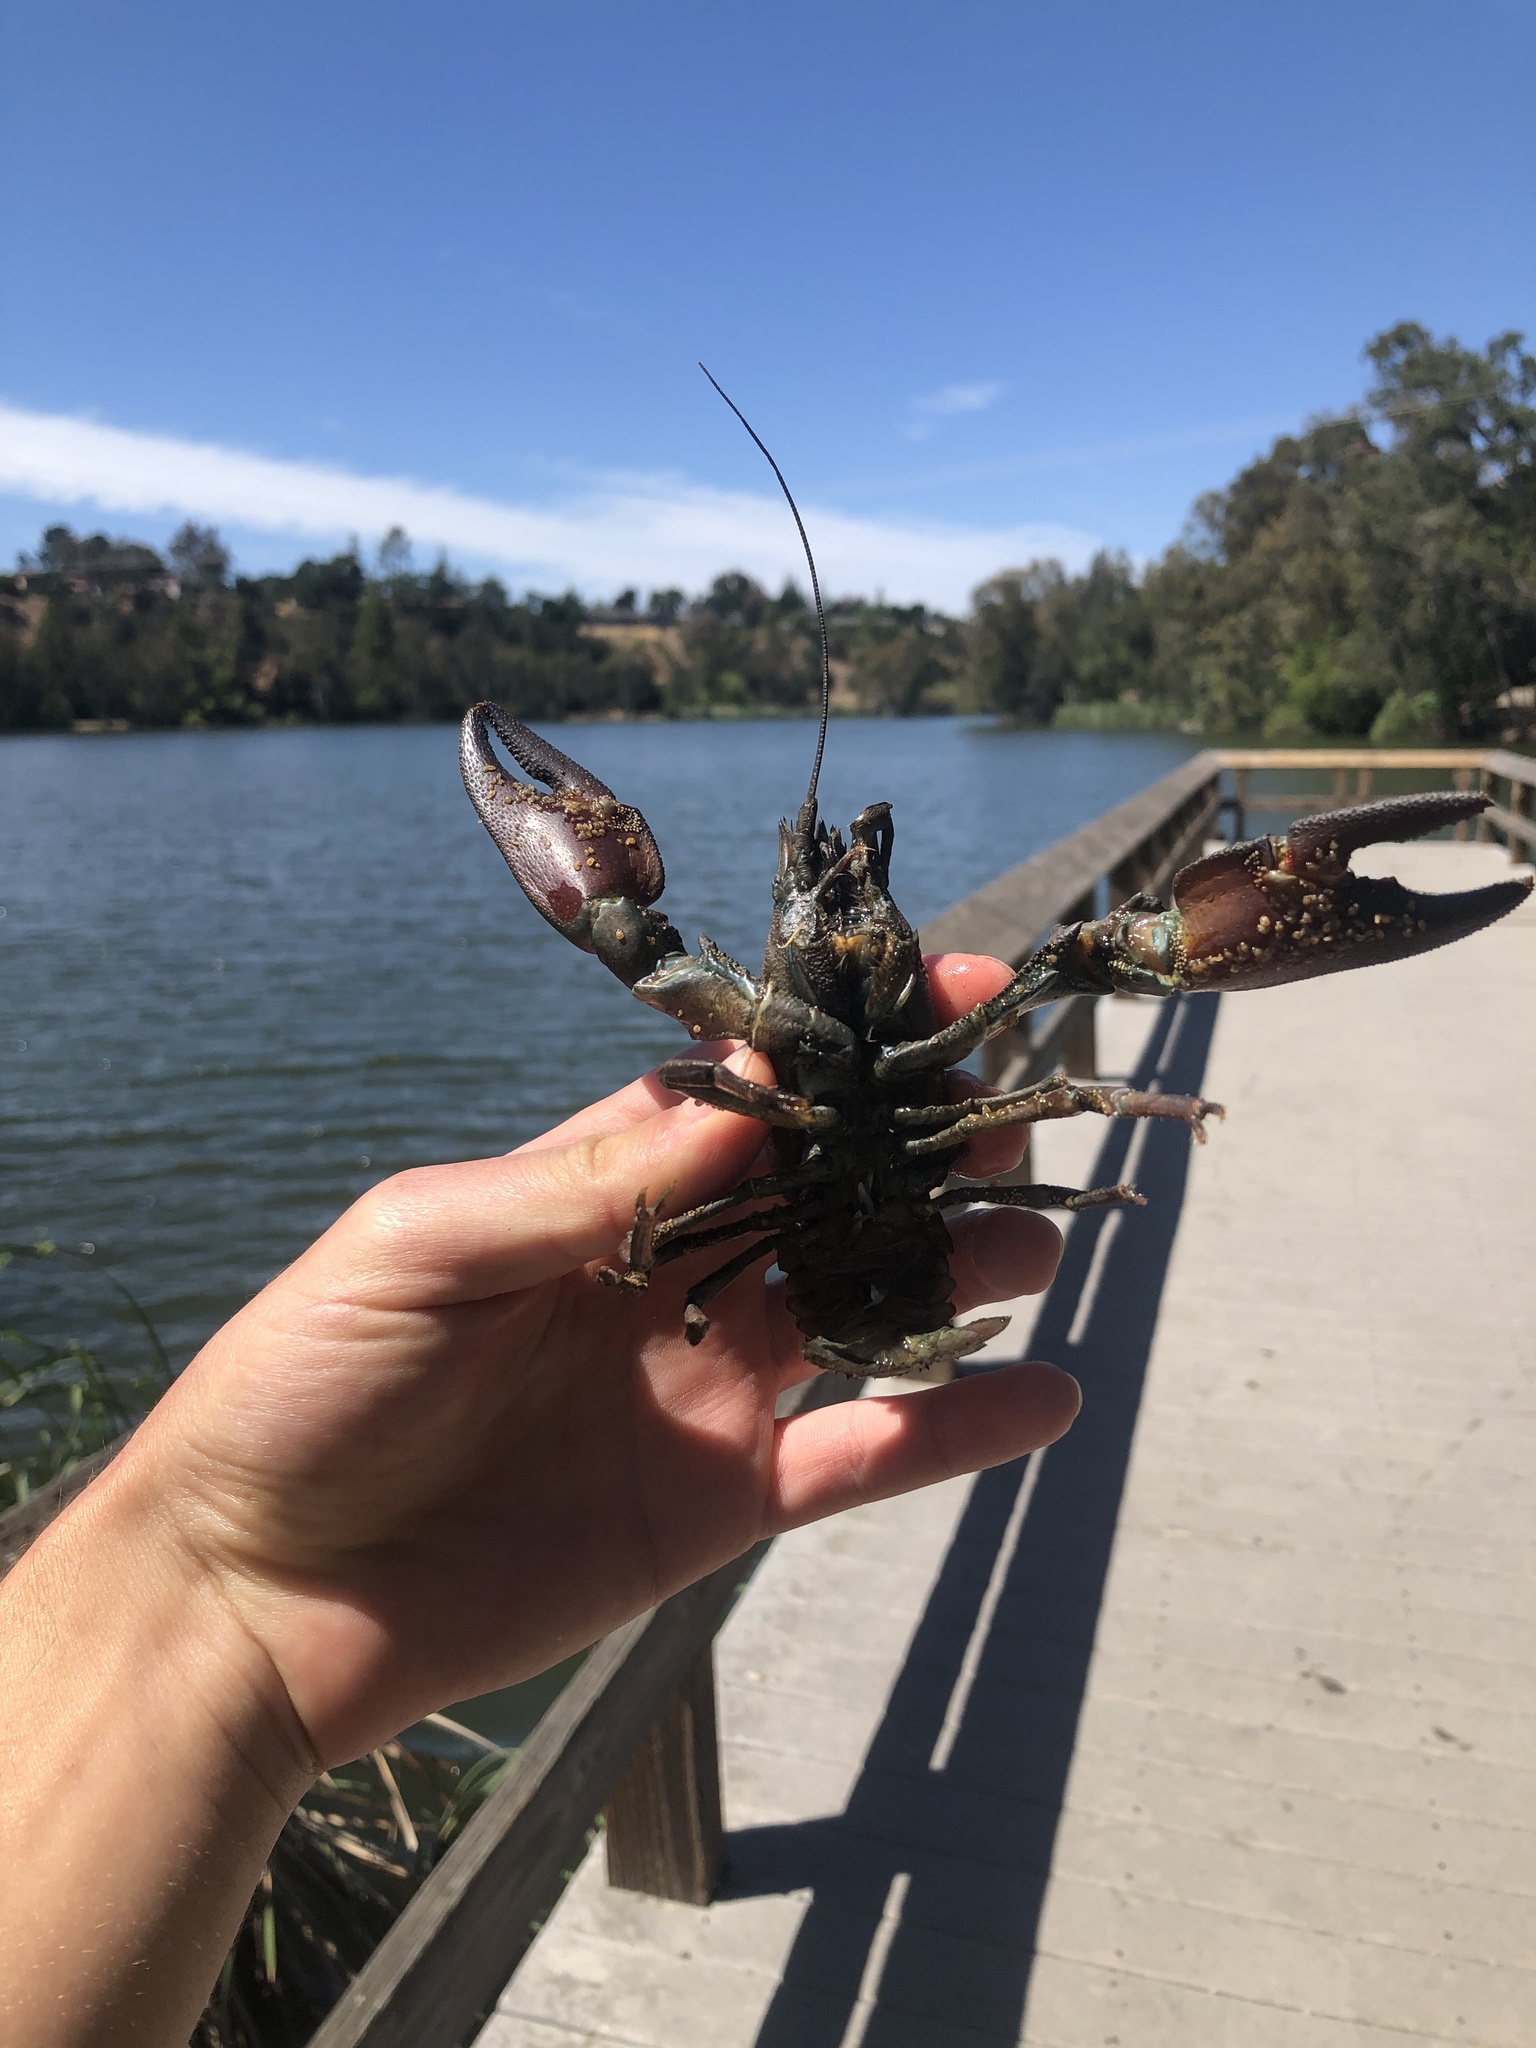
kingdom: Animalia
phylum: Arthropoda
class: Malacostraca
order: Decapoda
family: Astacidae
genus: Pacifastacus
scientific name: Pacifastacus leniusculus
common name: Signal crayfish
